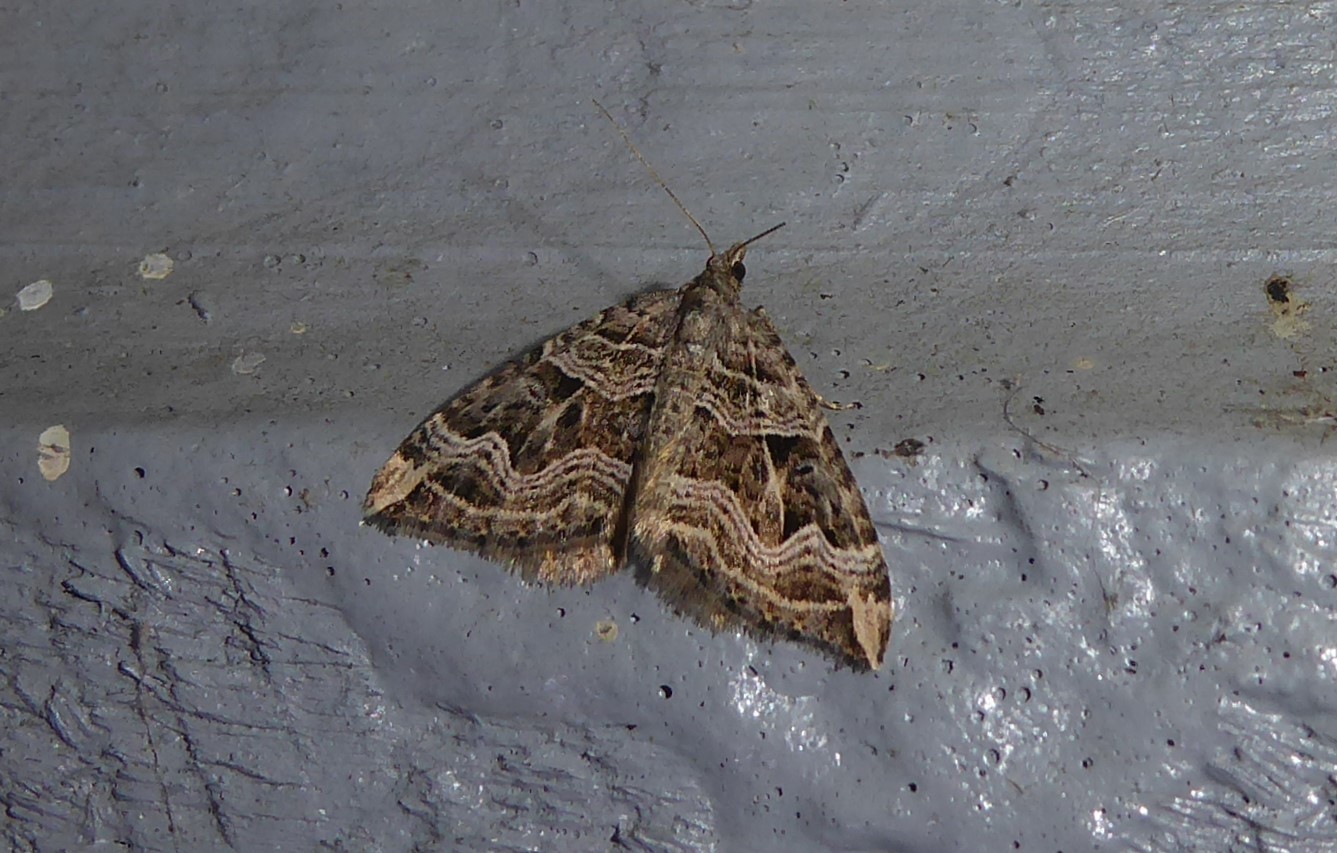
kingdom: Animalia
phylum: Arthropoda
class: Insecta
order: Lepidoptera
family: Geometridae
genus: Xanthorhoe
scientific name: Xanthorhoe semifissata
